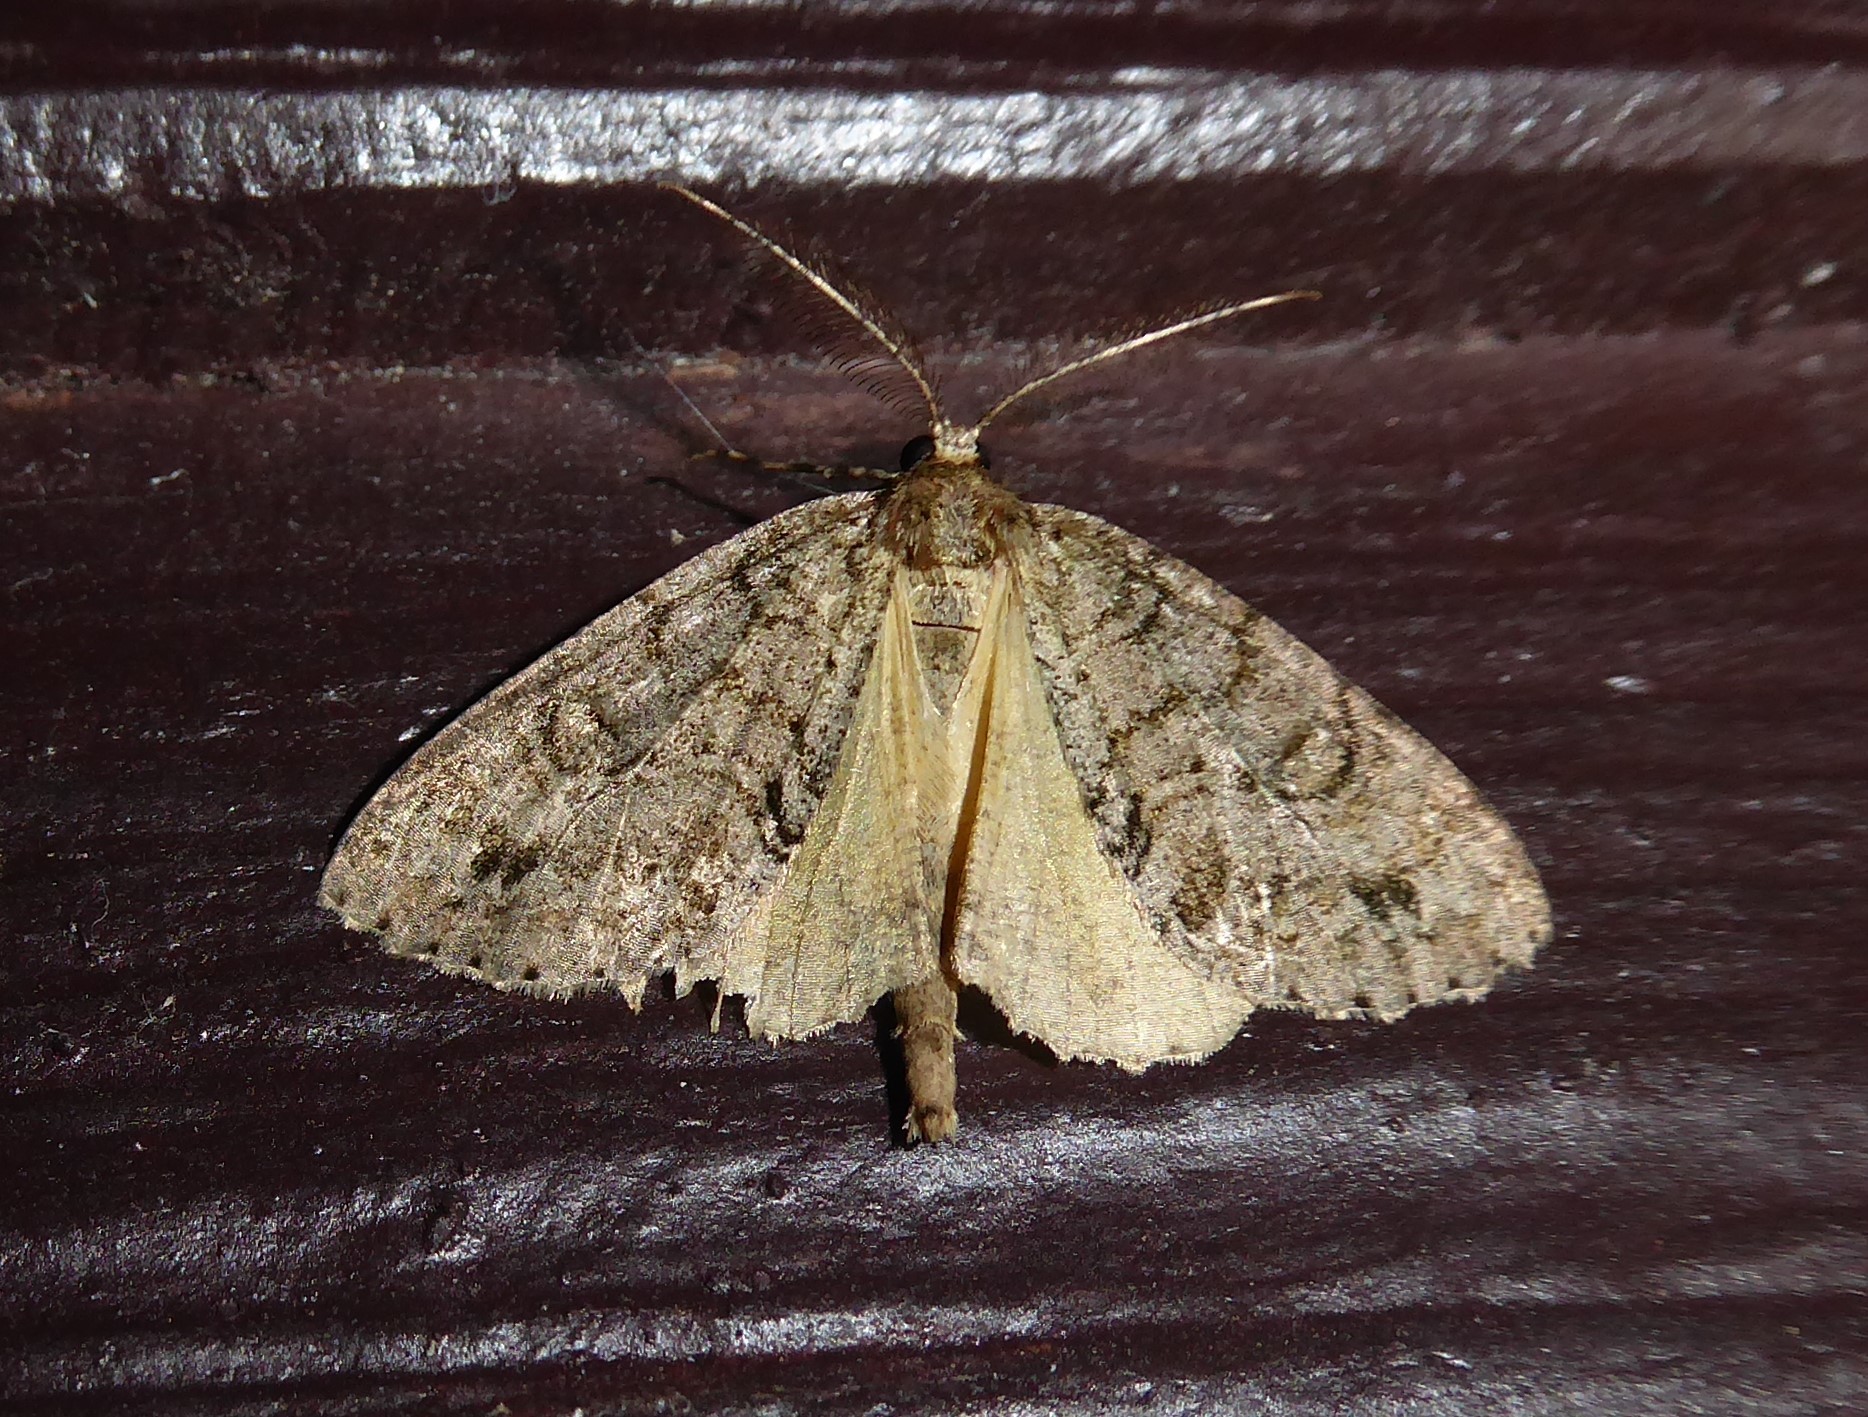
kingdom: Animalia
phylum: Arthropoda
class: Insecta
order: Lepidoptera
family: Geometridae
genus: Pseudocoremia
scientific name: Pseudocoremia suavis
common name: Common forest looper
